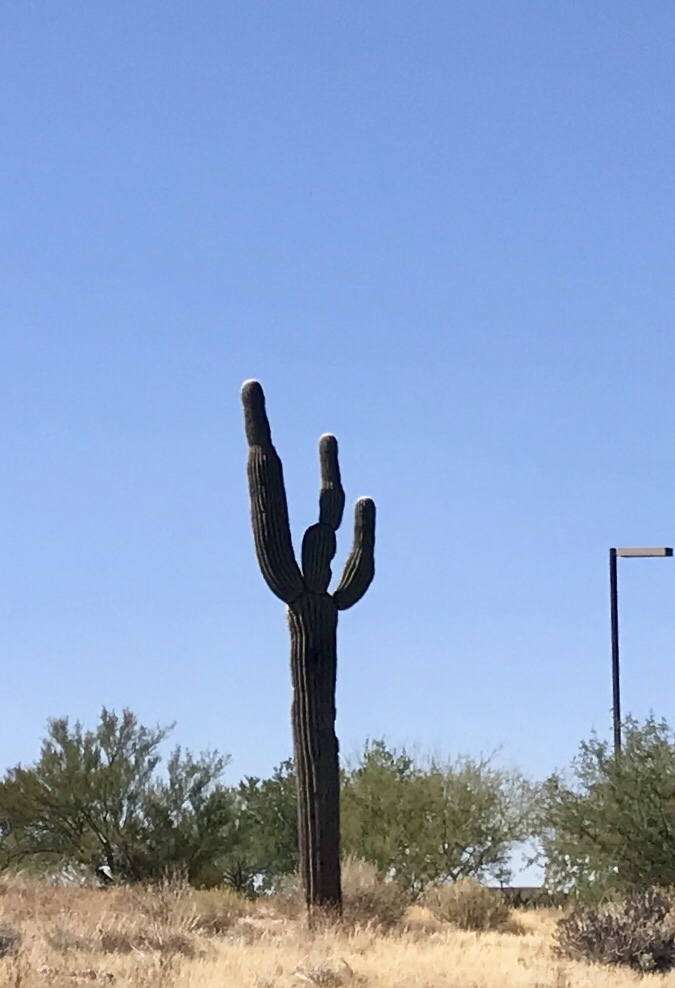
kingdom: Plantae
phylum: Tracheophyta
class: Magnoliopsida
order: Caryophyllales
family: Cactaceae
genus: Carnegiea
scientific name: Carnegiea gigantea
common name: Saguaro
